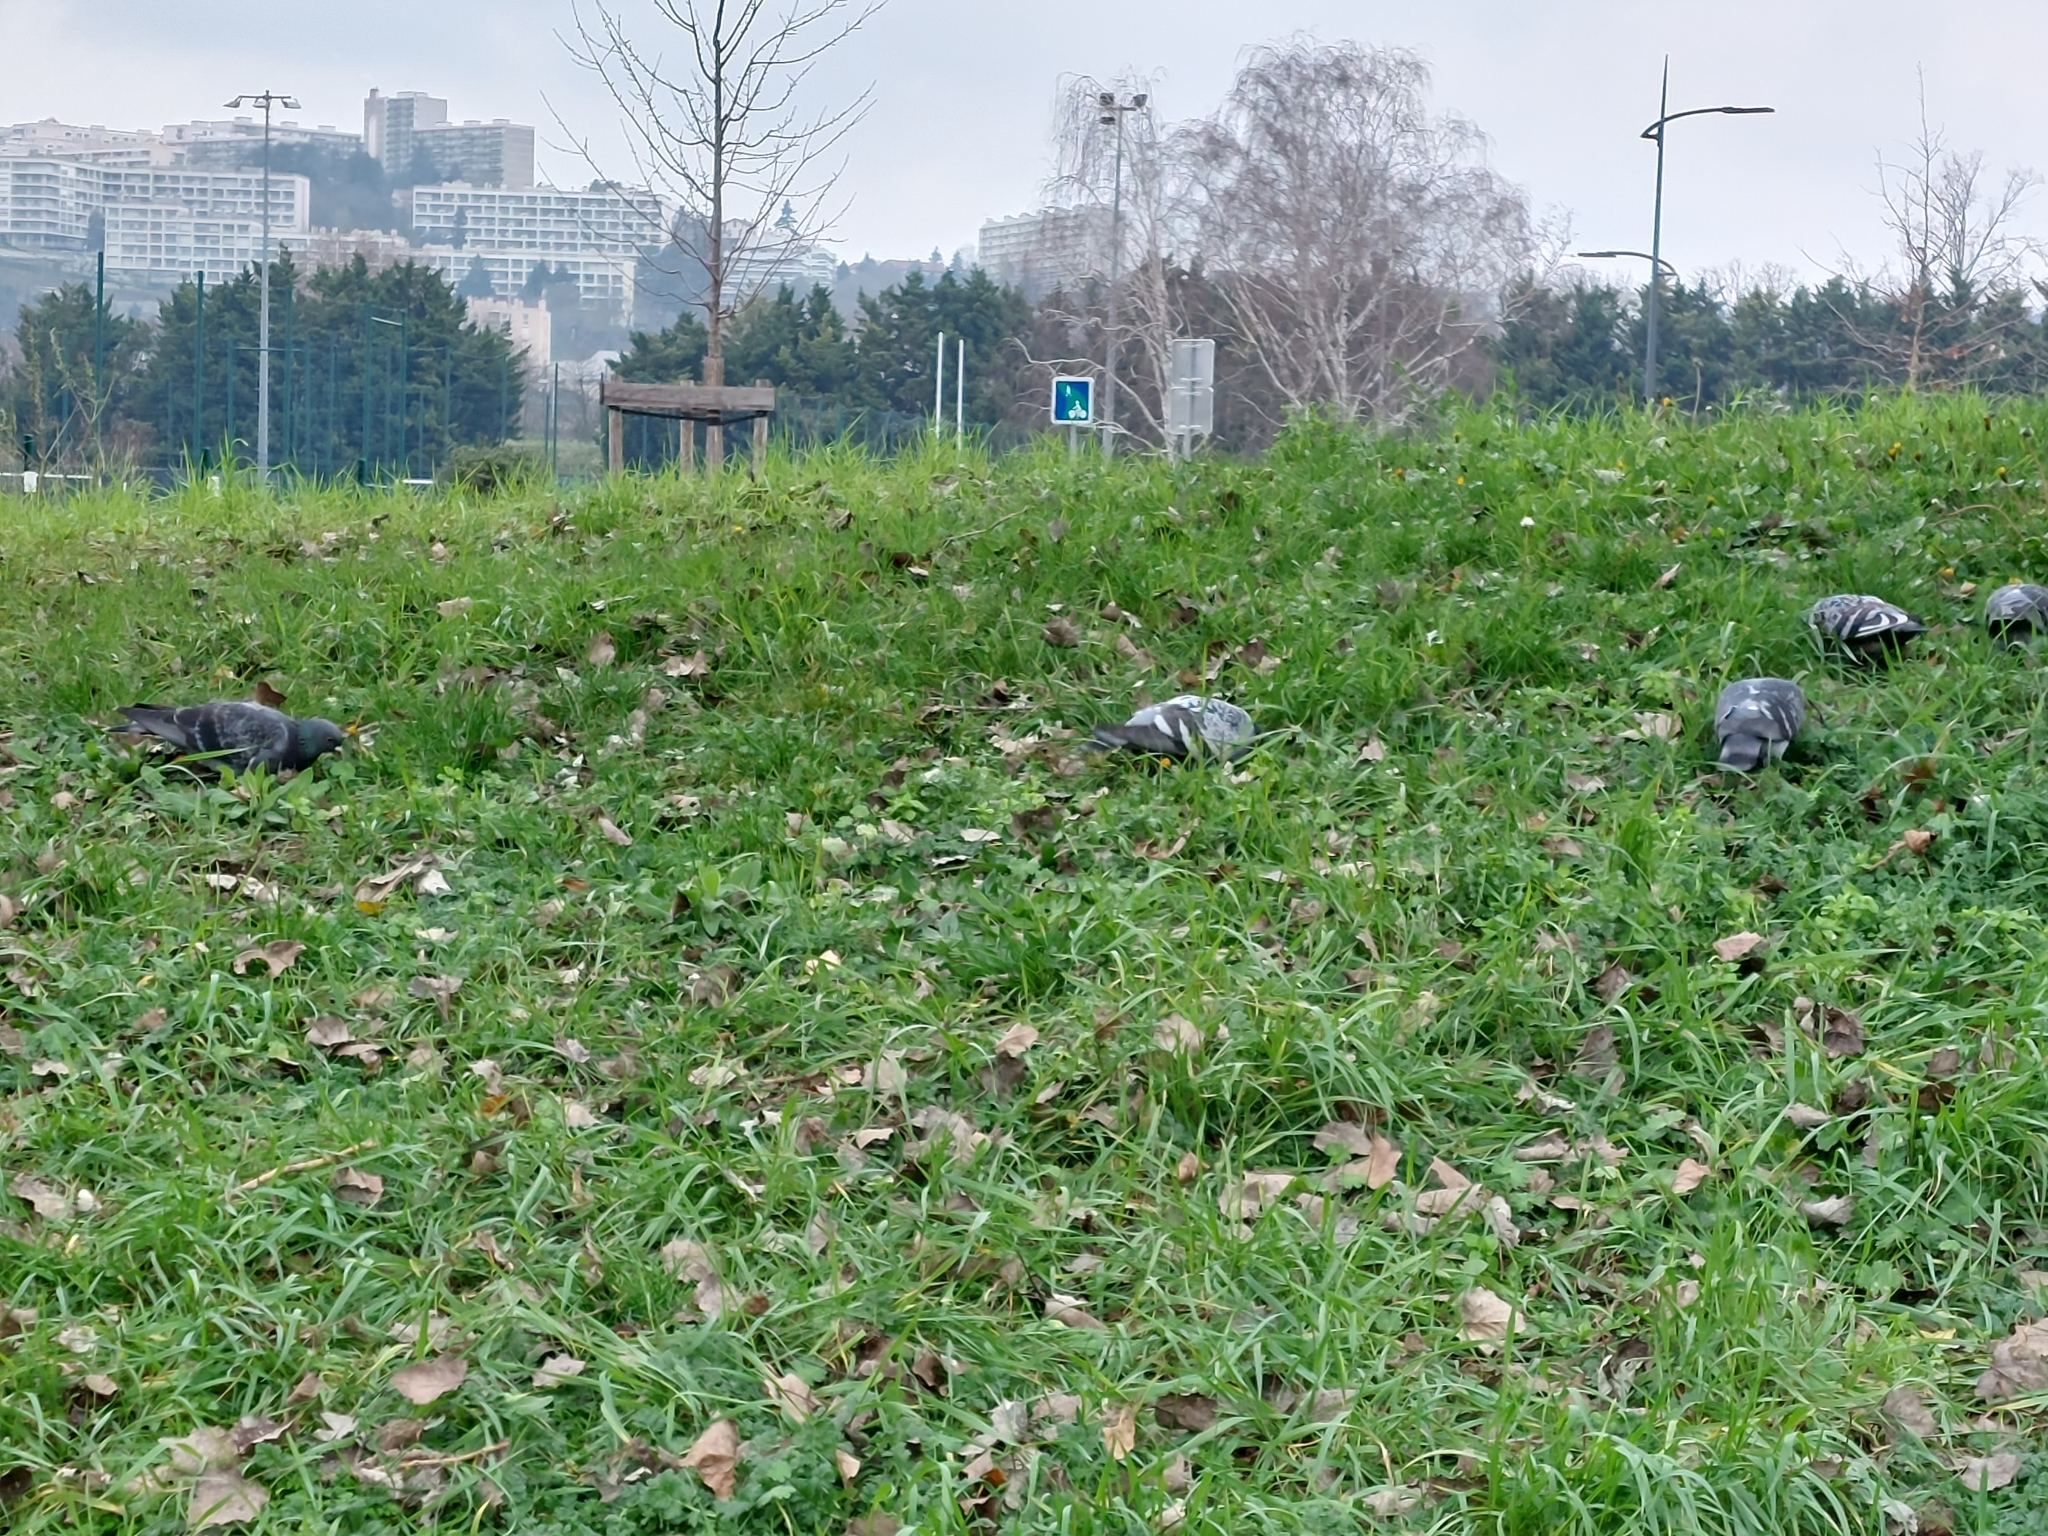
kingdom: Animalia
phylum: Chordata
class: Aves
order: Columbiformes
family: Columbidae
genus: Columba
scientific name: Columba livia
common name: Rock pigeon
